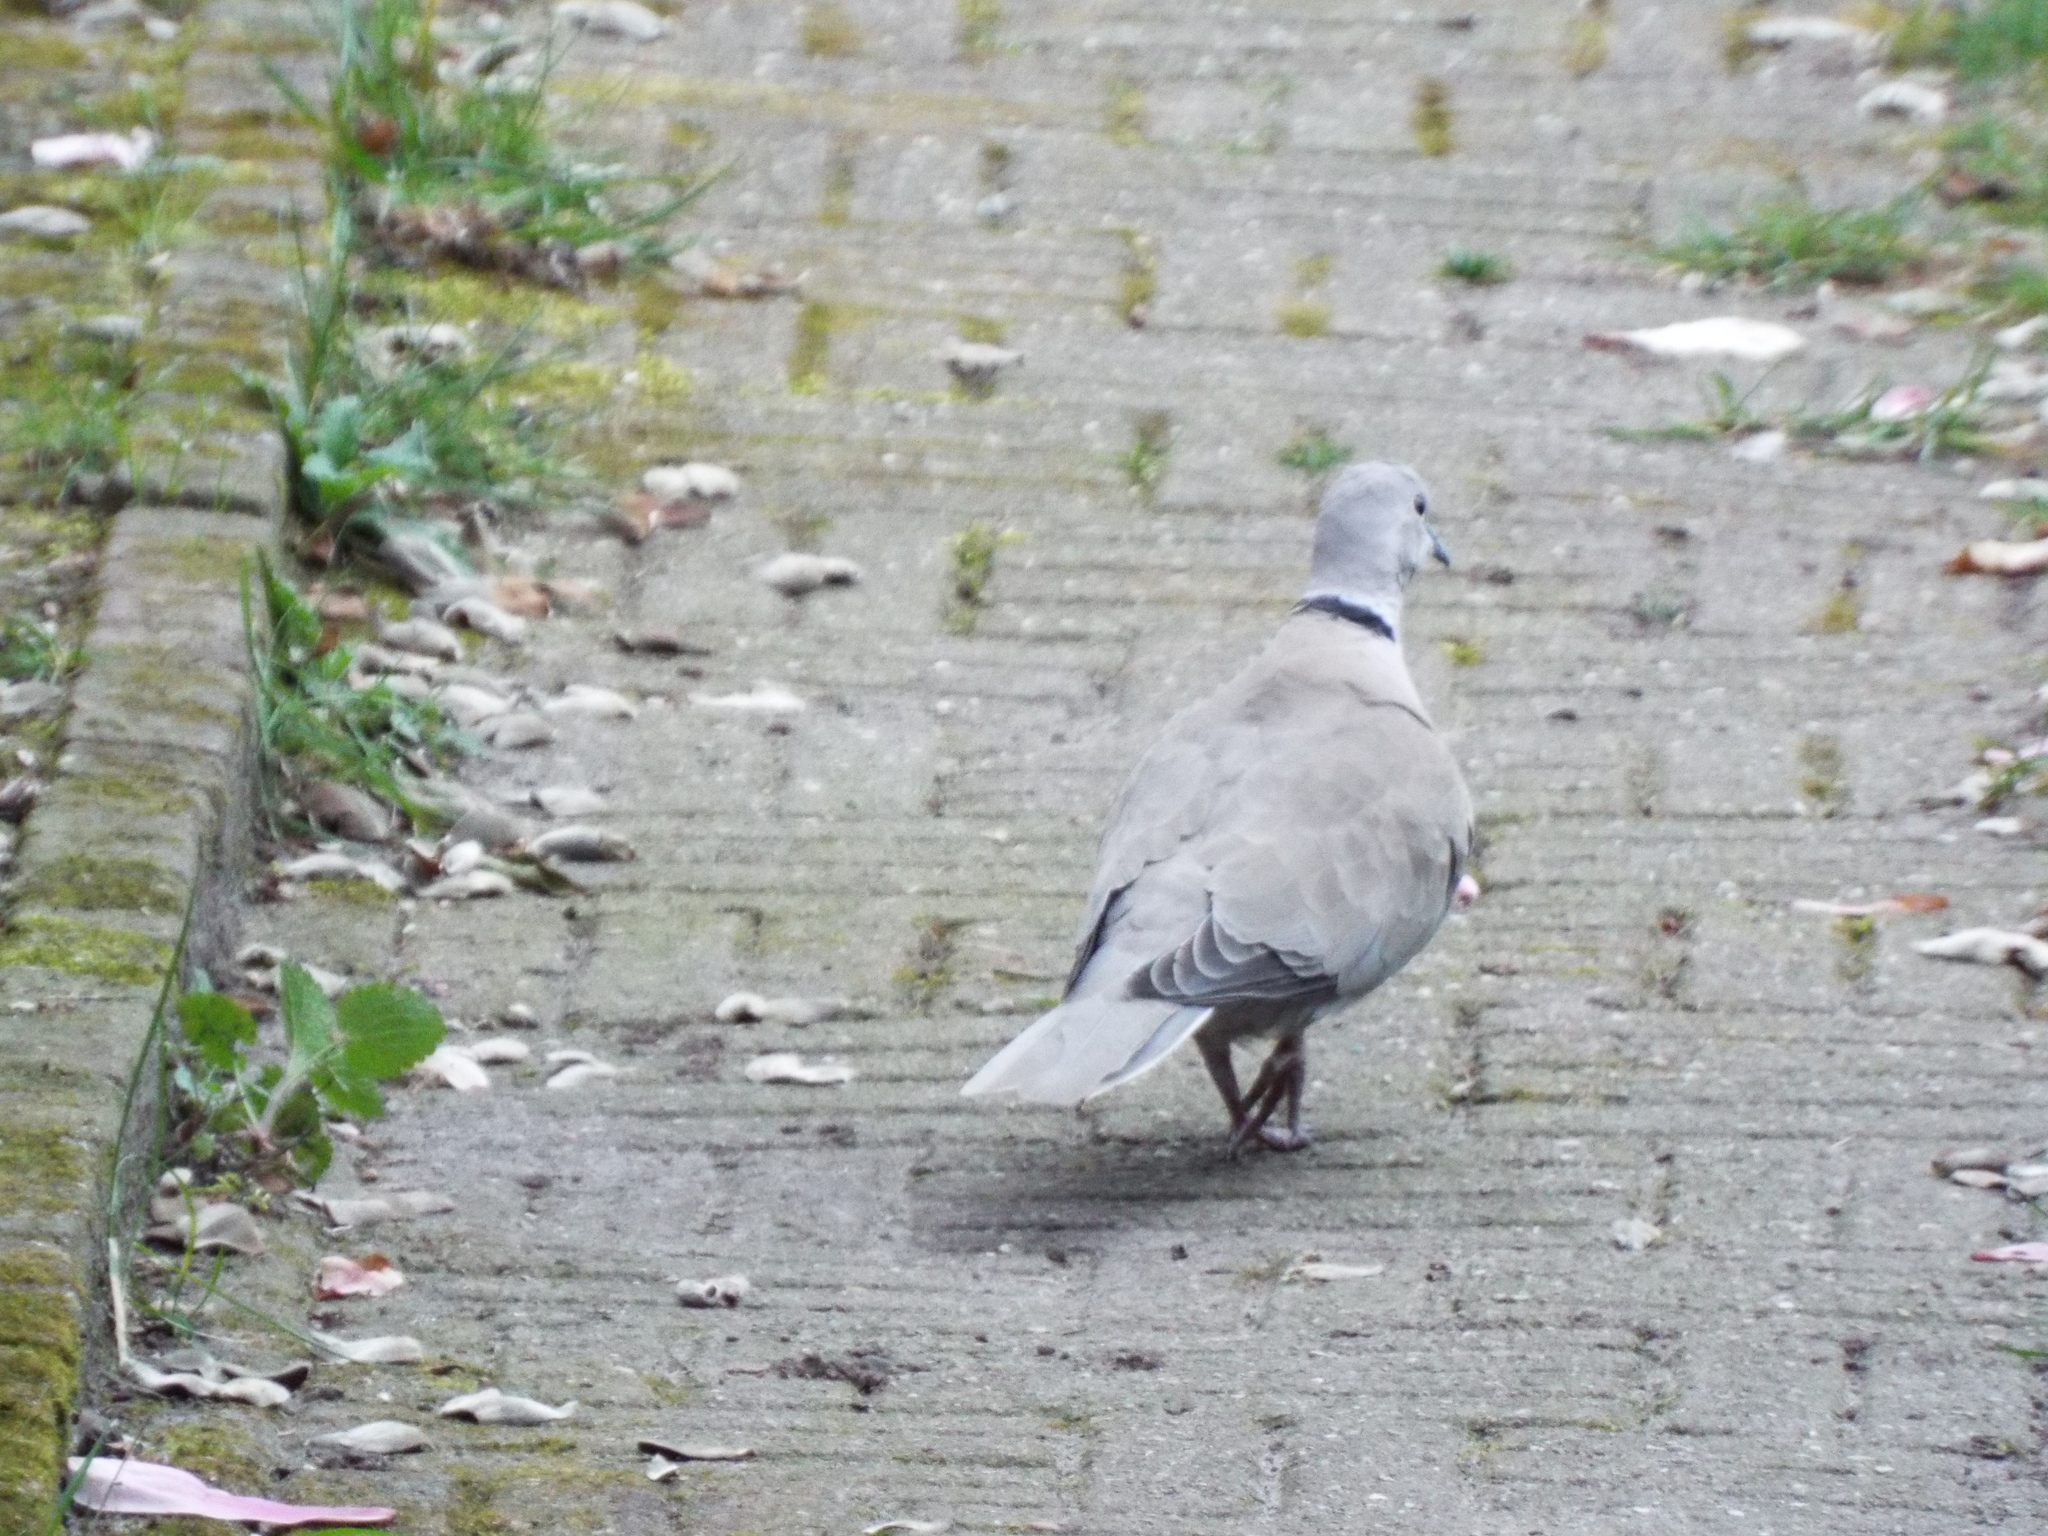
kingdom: Animalia
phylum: Chordata
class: Aves
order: Columbiformes
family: Columbidae
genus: Streptopelia
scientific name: Streptopelia decaocto
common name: Eurasian collared dove
